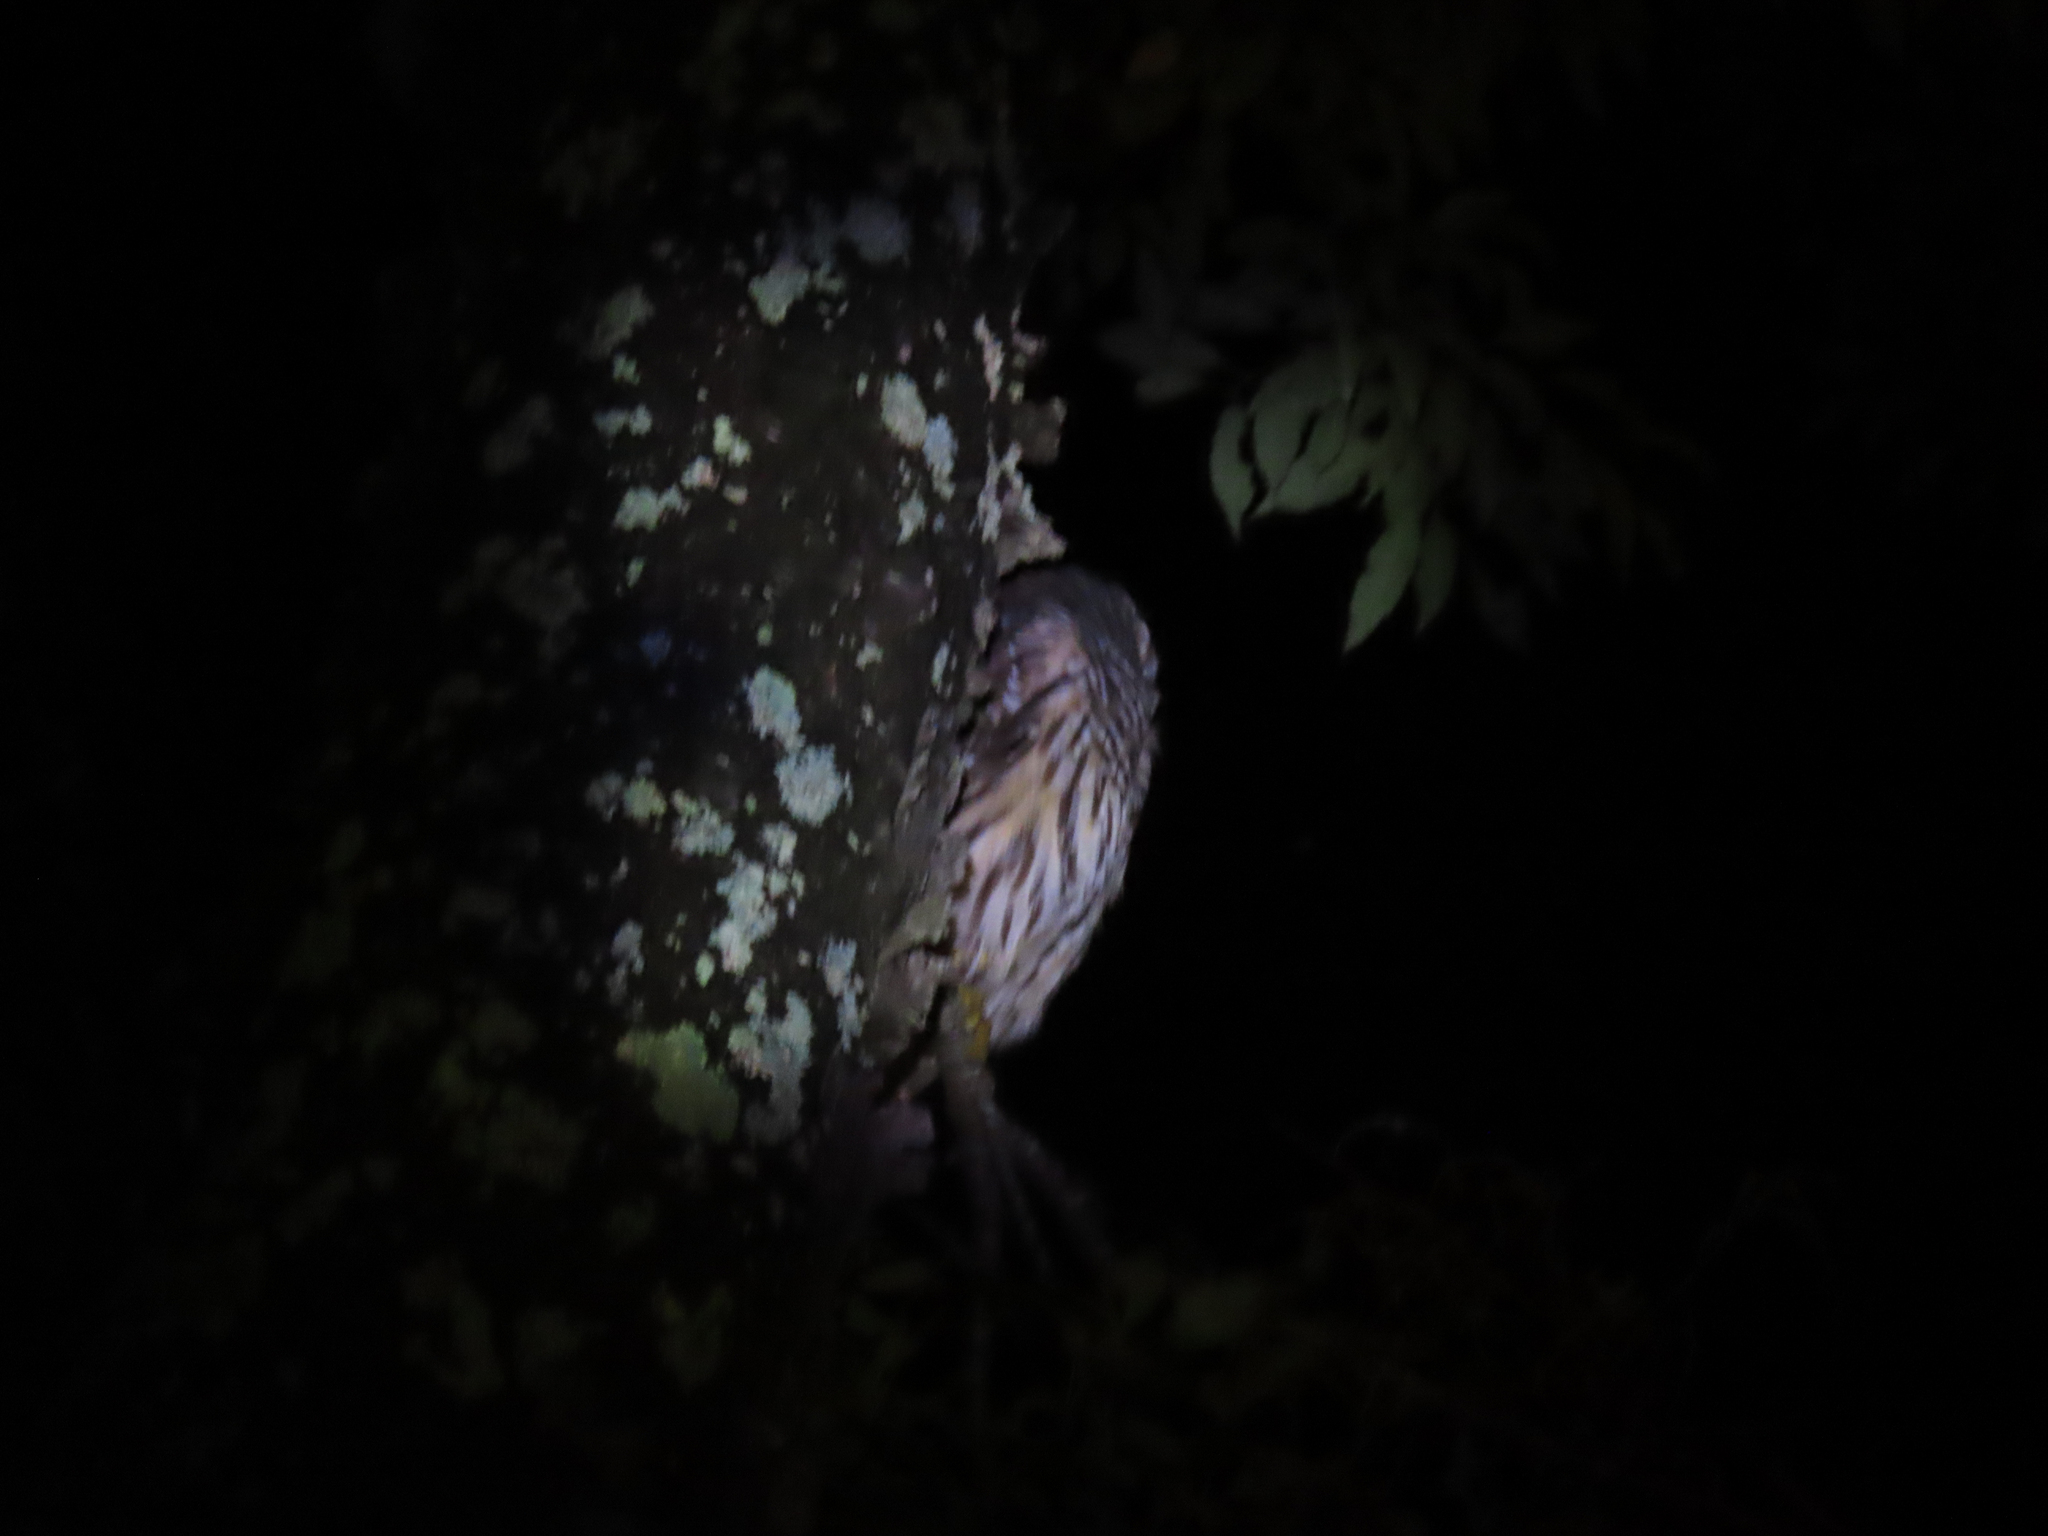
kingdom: Animalia
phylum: Chordata
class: Aves
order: Strigiformes
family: Strigidae
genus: Strix
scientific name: Strix varia
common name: Barred owl
